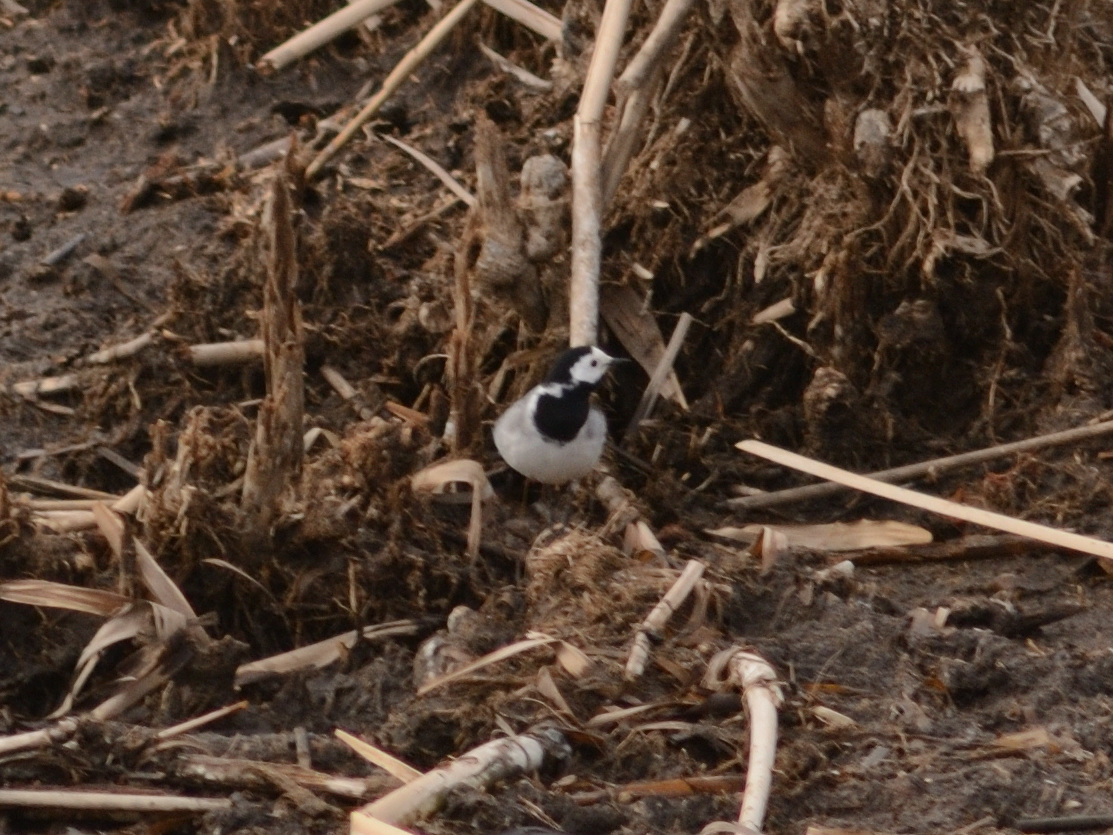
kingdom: Animalia
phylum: Chordata
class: Aves
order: Passeriformes
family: Motacillidae
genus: Motacilla
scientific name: Motacilla alba
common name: White wagtail
